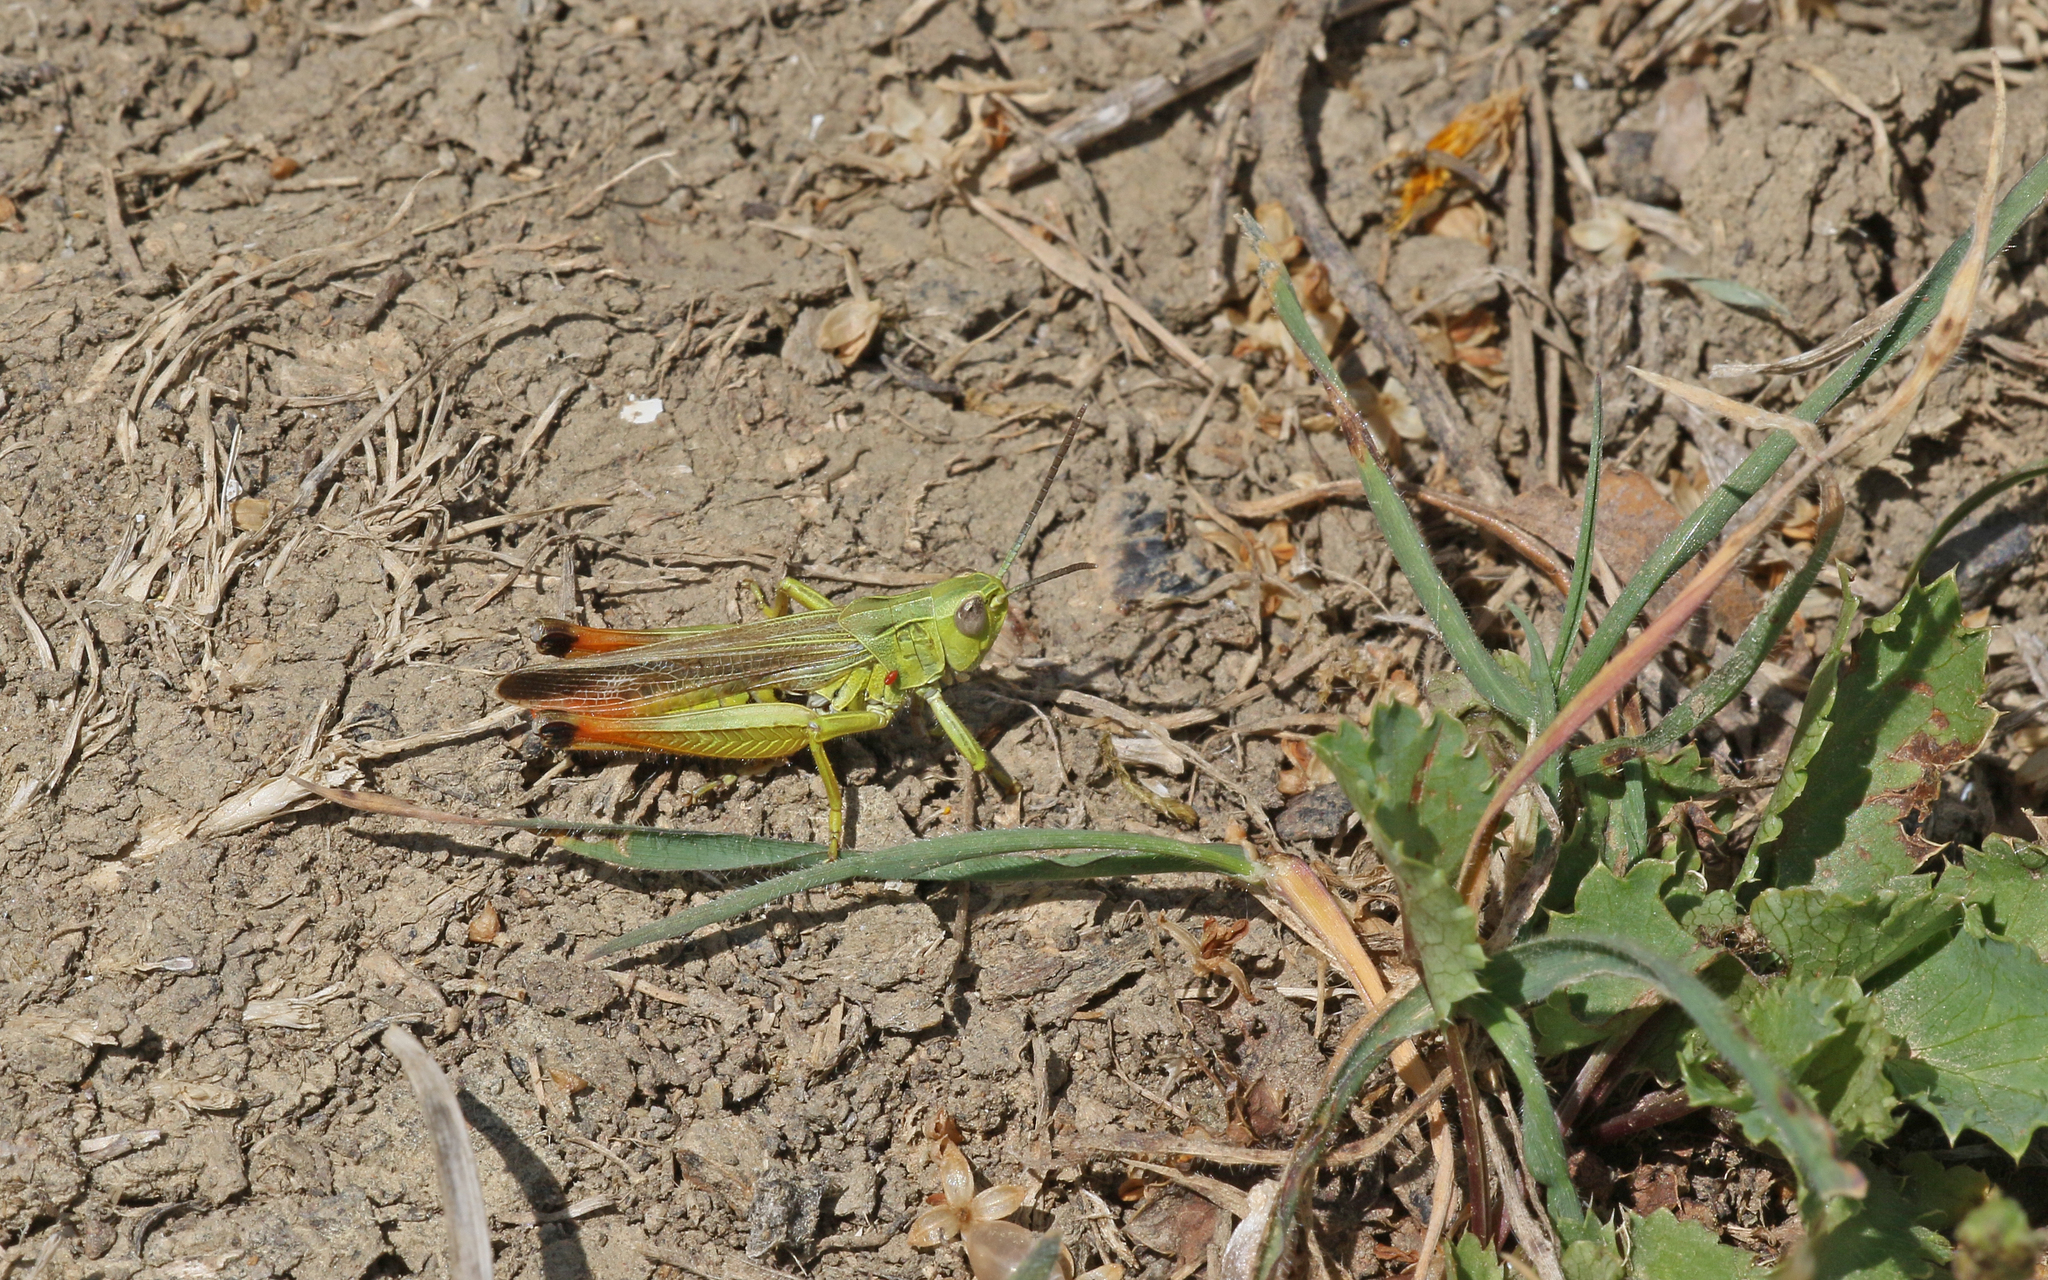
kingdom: Animalia
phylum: Arthropoda
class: Insecta
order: Orthoptera
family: Acrididae
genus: Chorthippus
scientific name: Chorthippus apicalis
